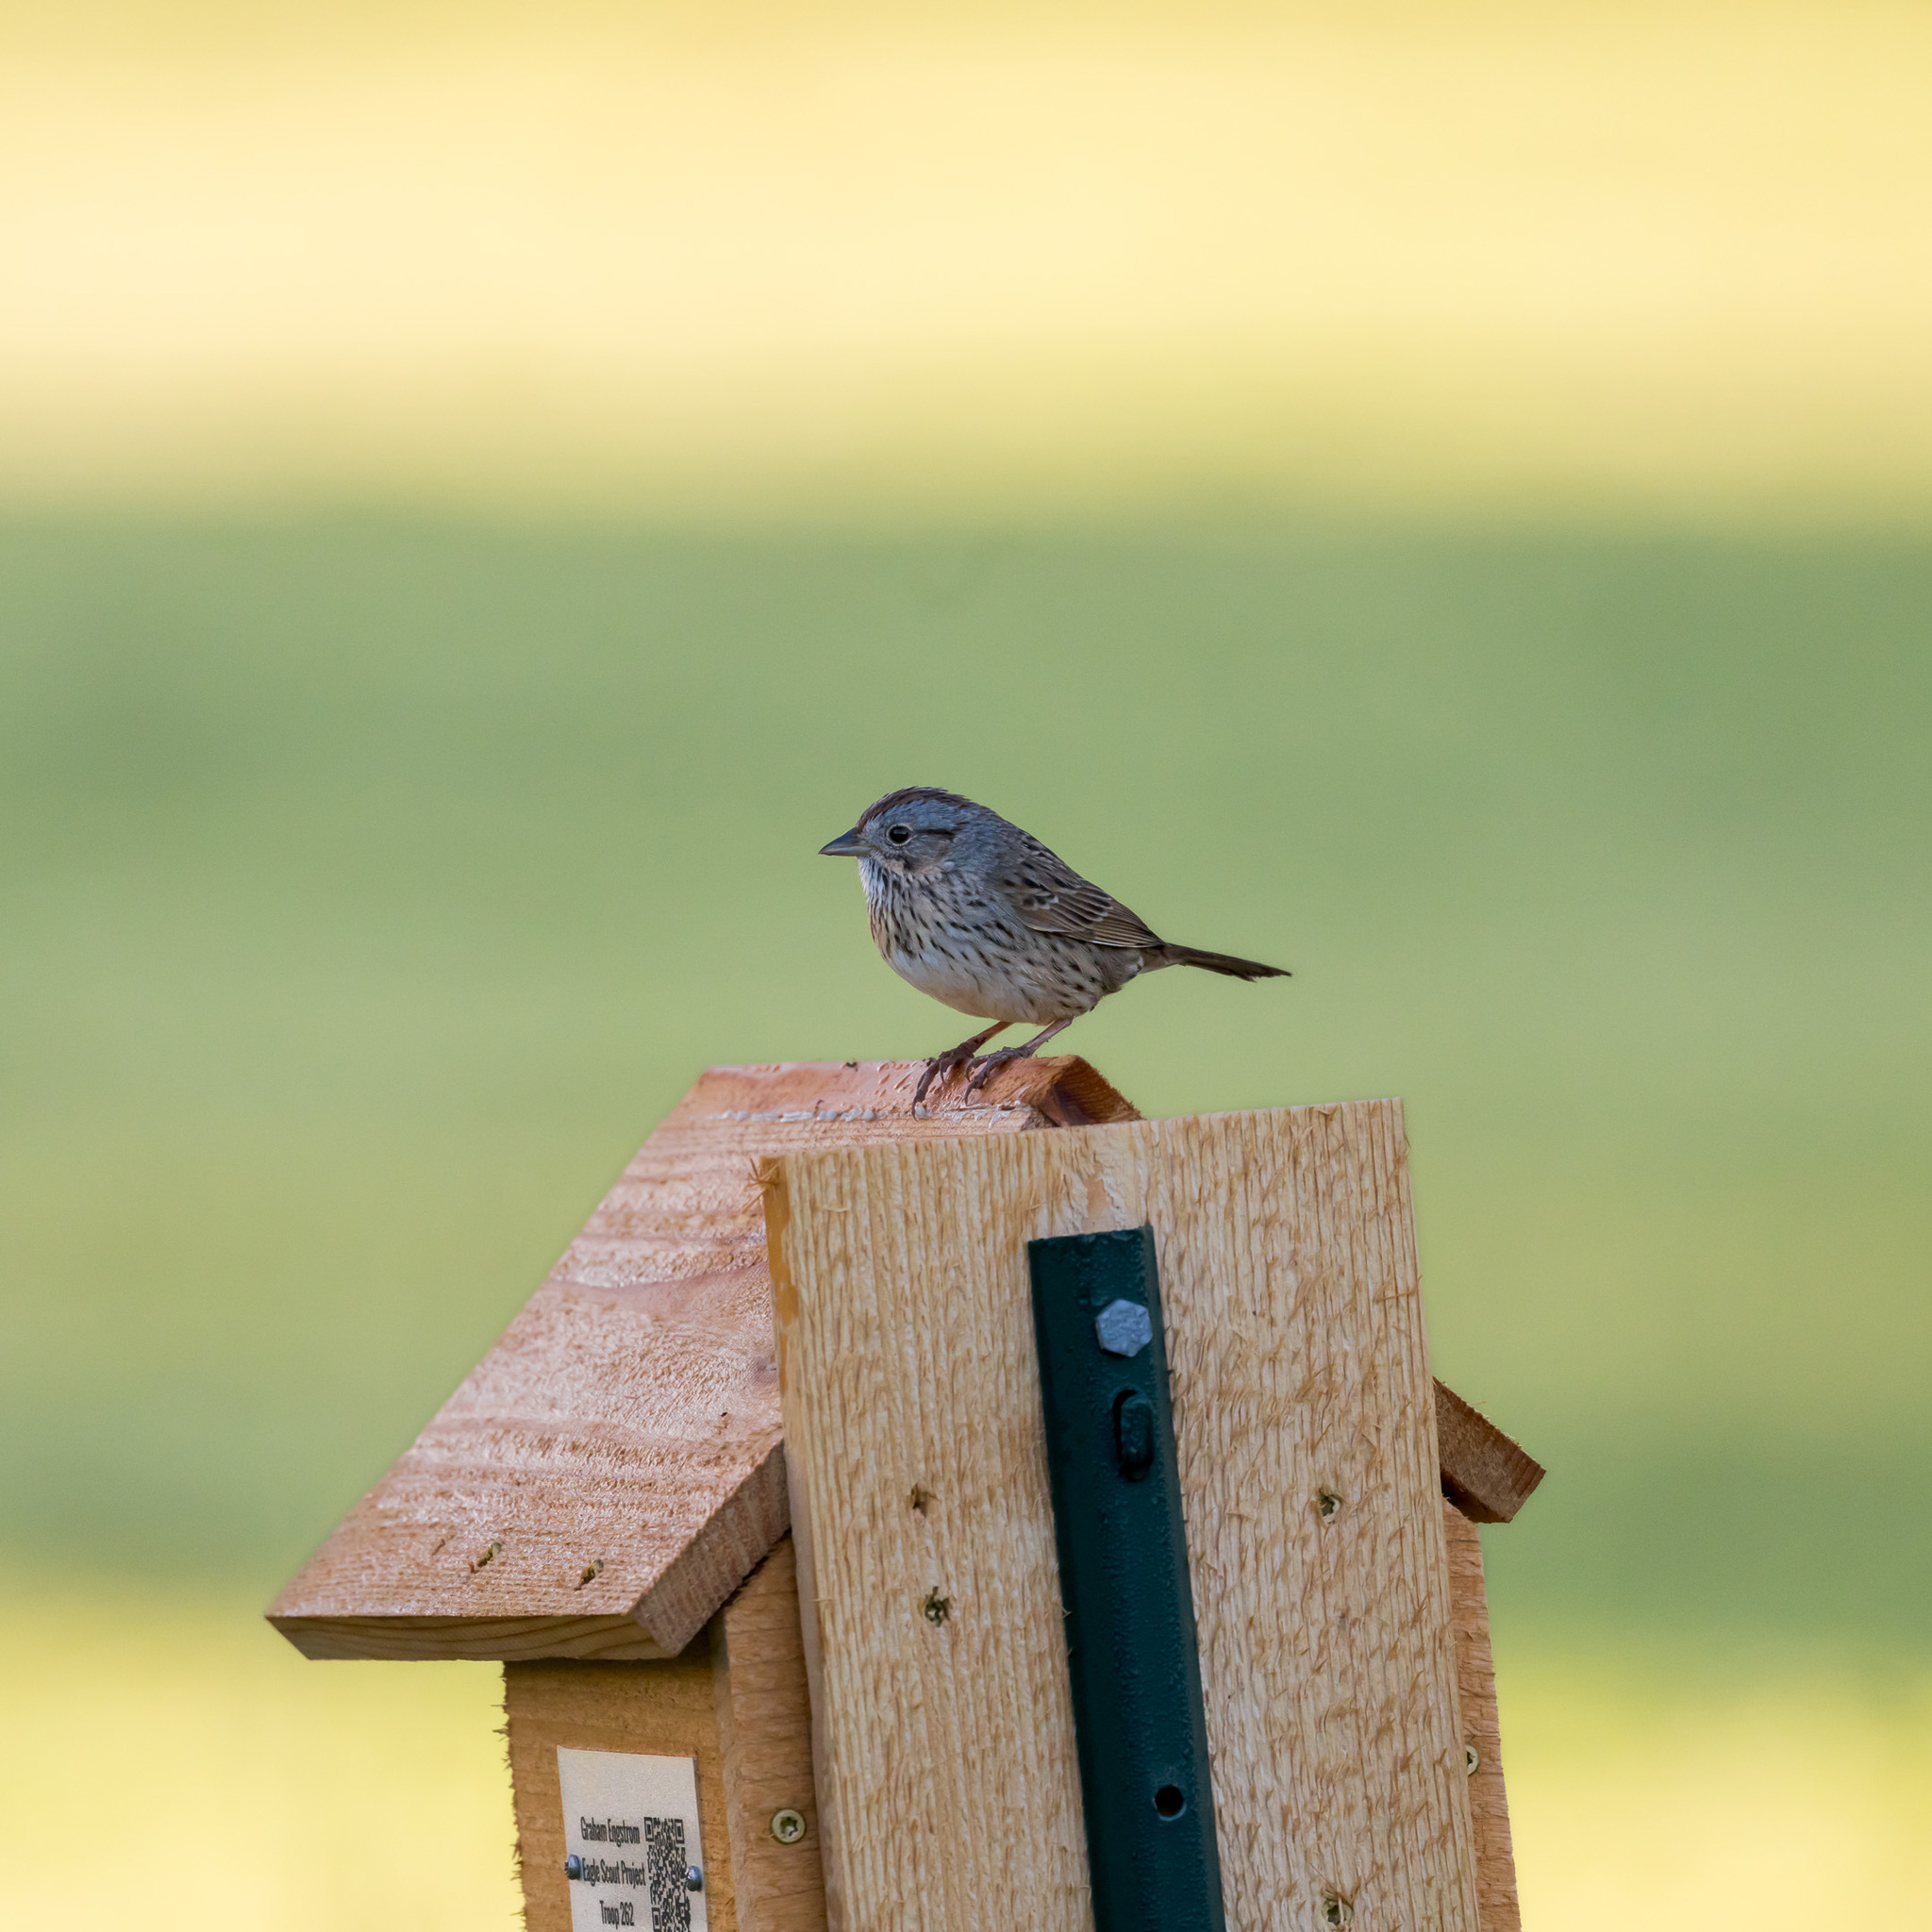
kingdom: Animalia
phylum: Chordata
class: Aves
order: Passeriformes
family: Passerellidae
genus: Melospiza
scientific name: Melospiza lincolnii
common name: Lincoln's sparrow
